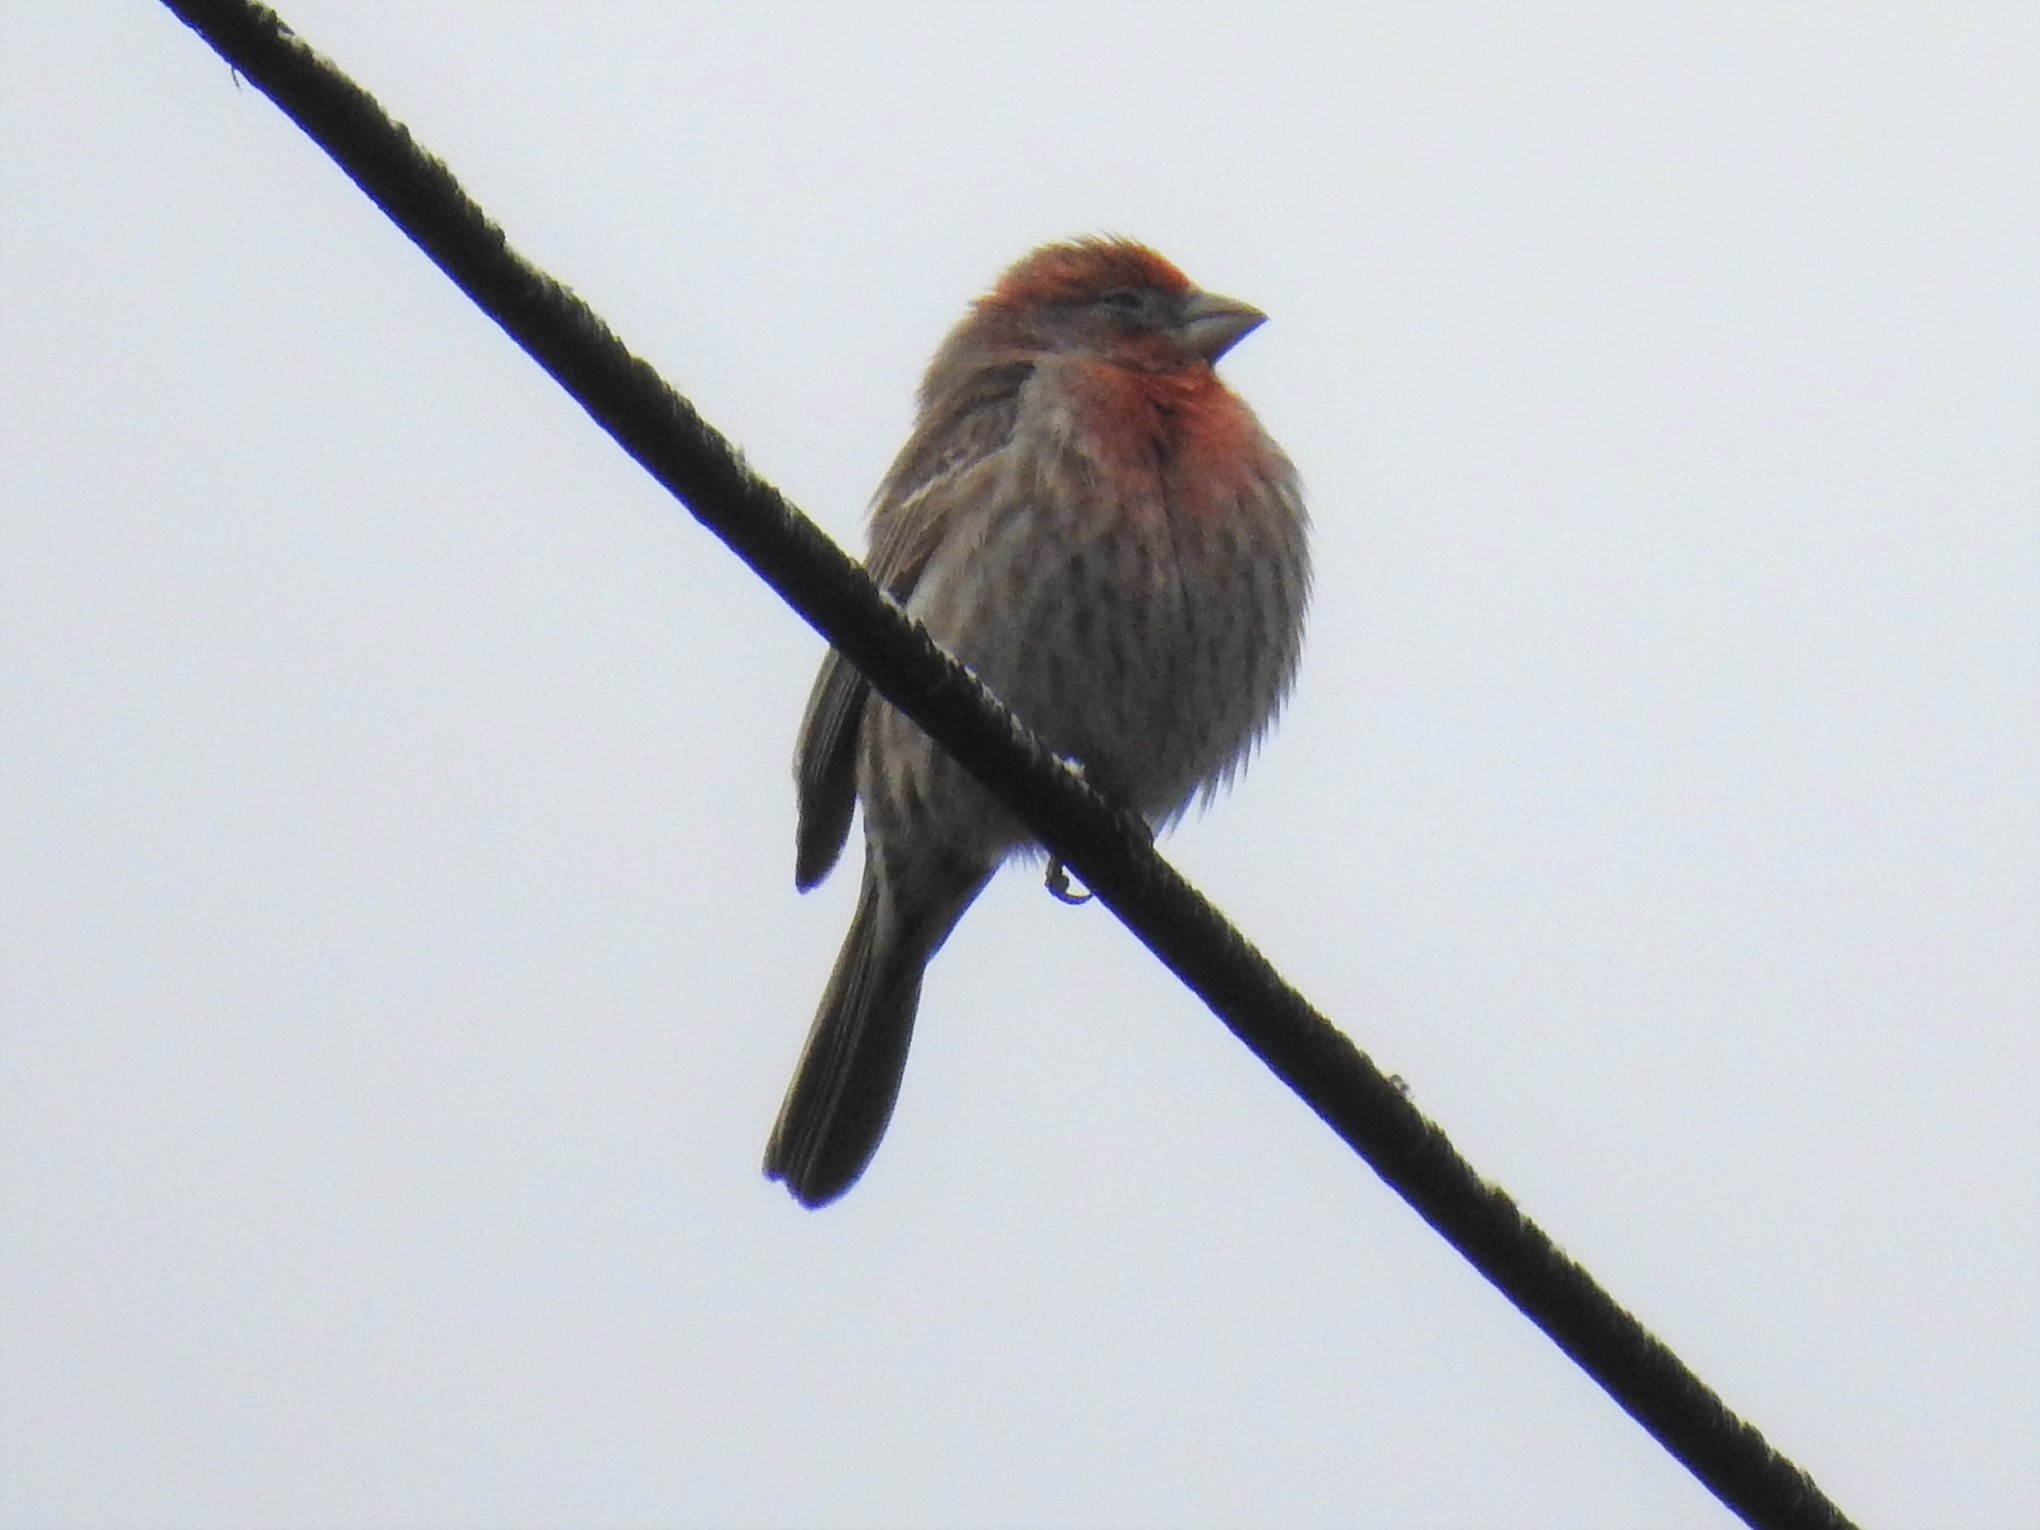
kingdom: Animalia
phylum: Chordata
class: Aves
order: Passeriformes
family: Fringillidae
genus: Haemorhous
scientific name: Haemorhous mexicanus
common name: House finch
